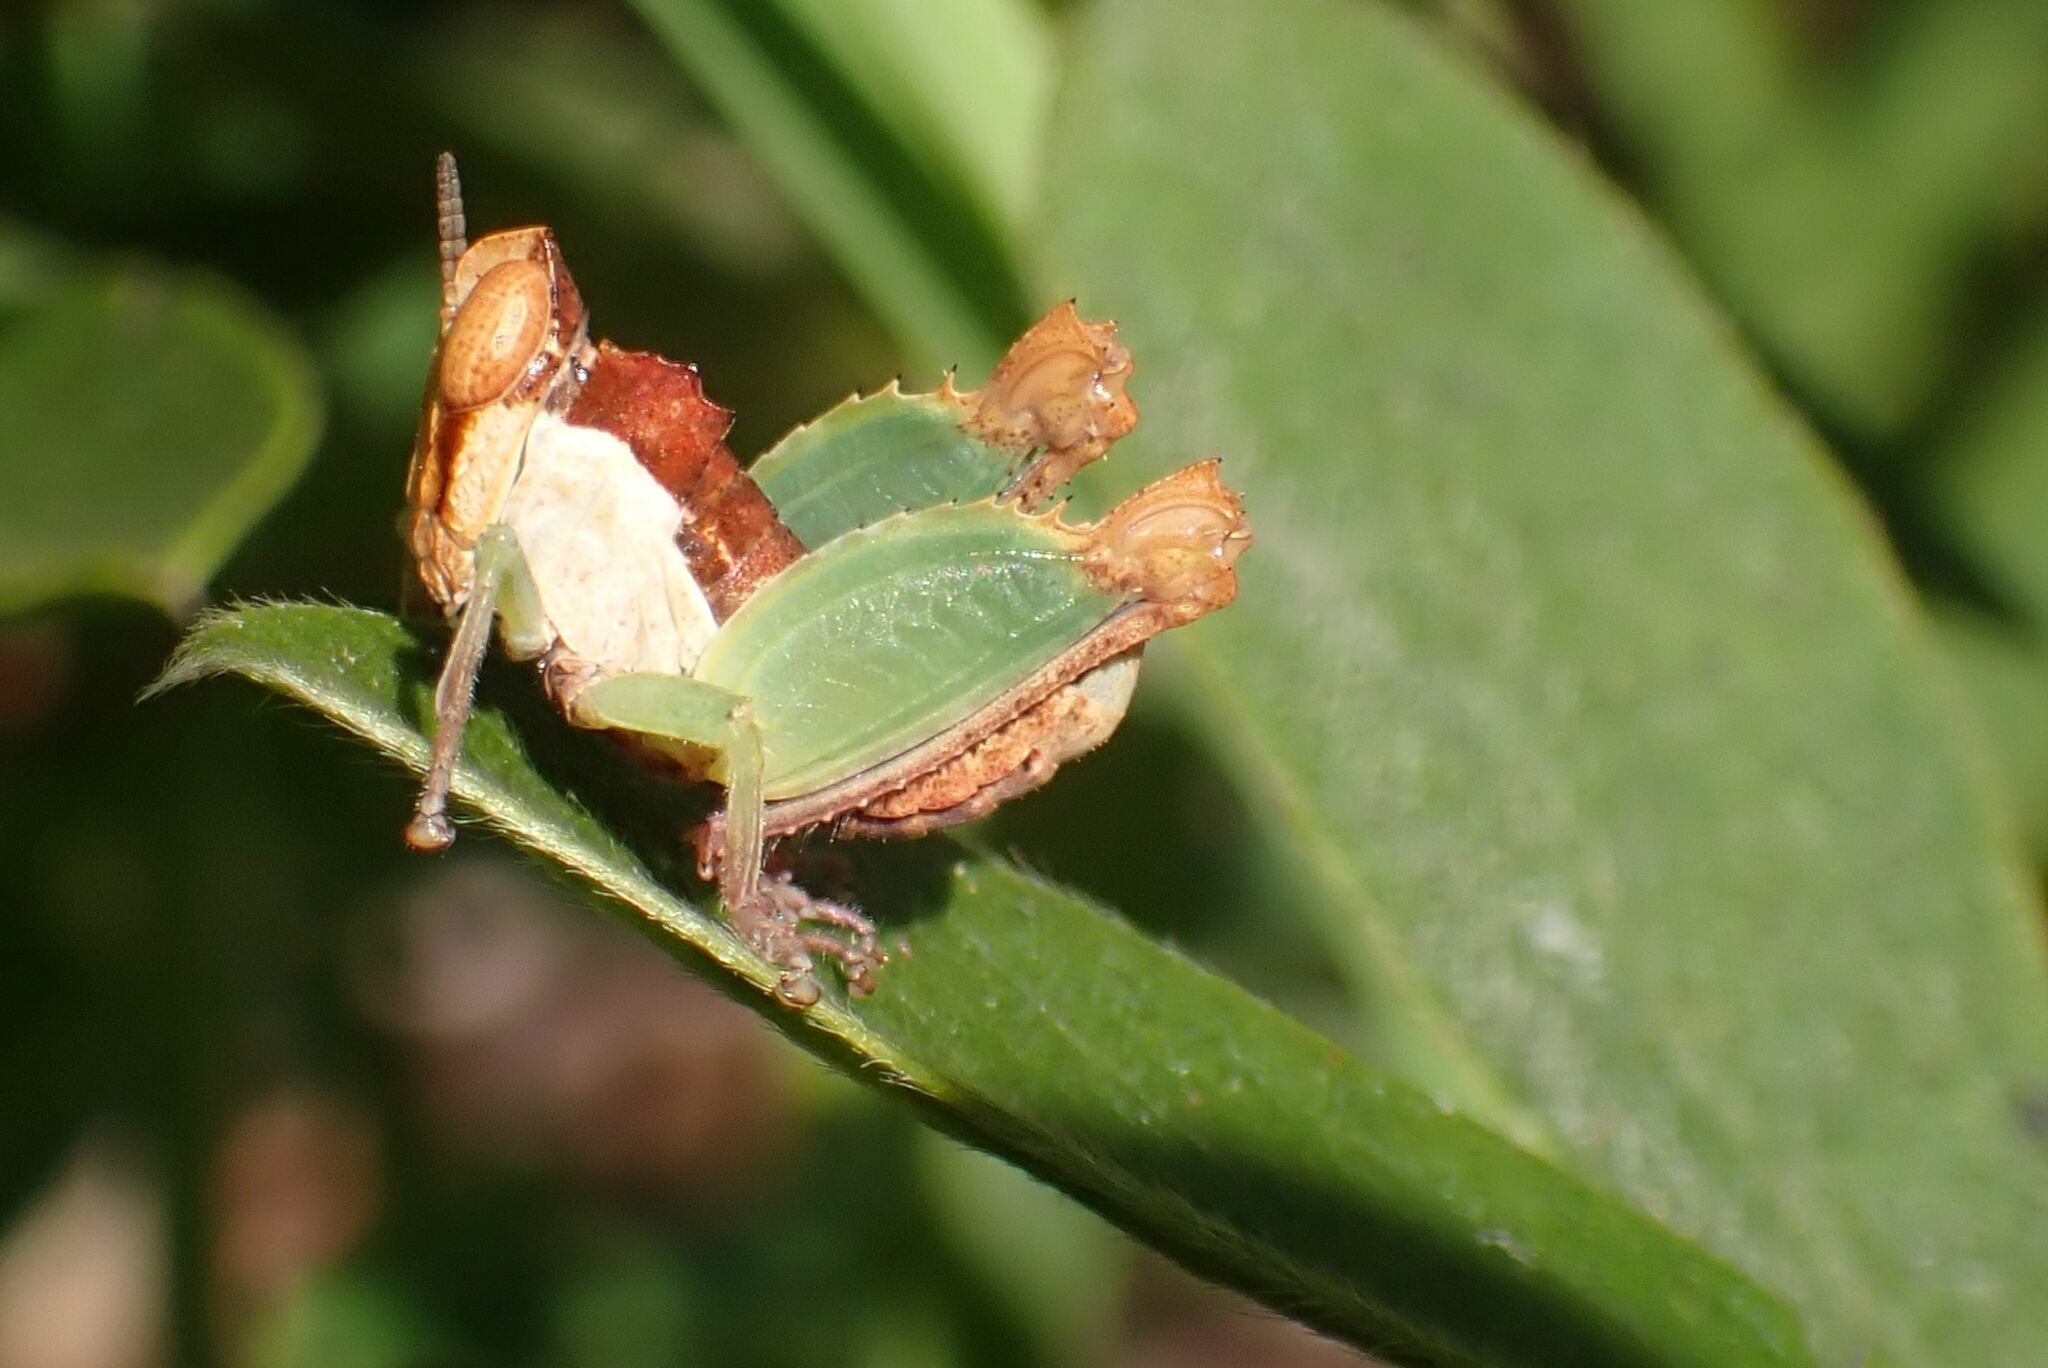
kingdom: Animalia
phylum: Arthropoda
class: Insecta
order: Orthoptera
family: Thericleidae
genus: Schulthessiella
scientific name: Schulthessiella minuta
